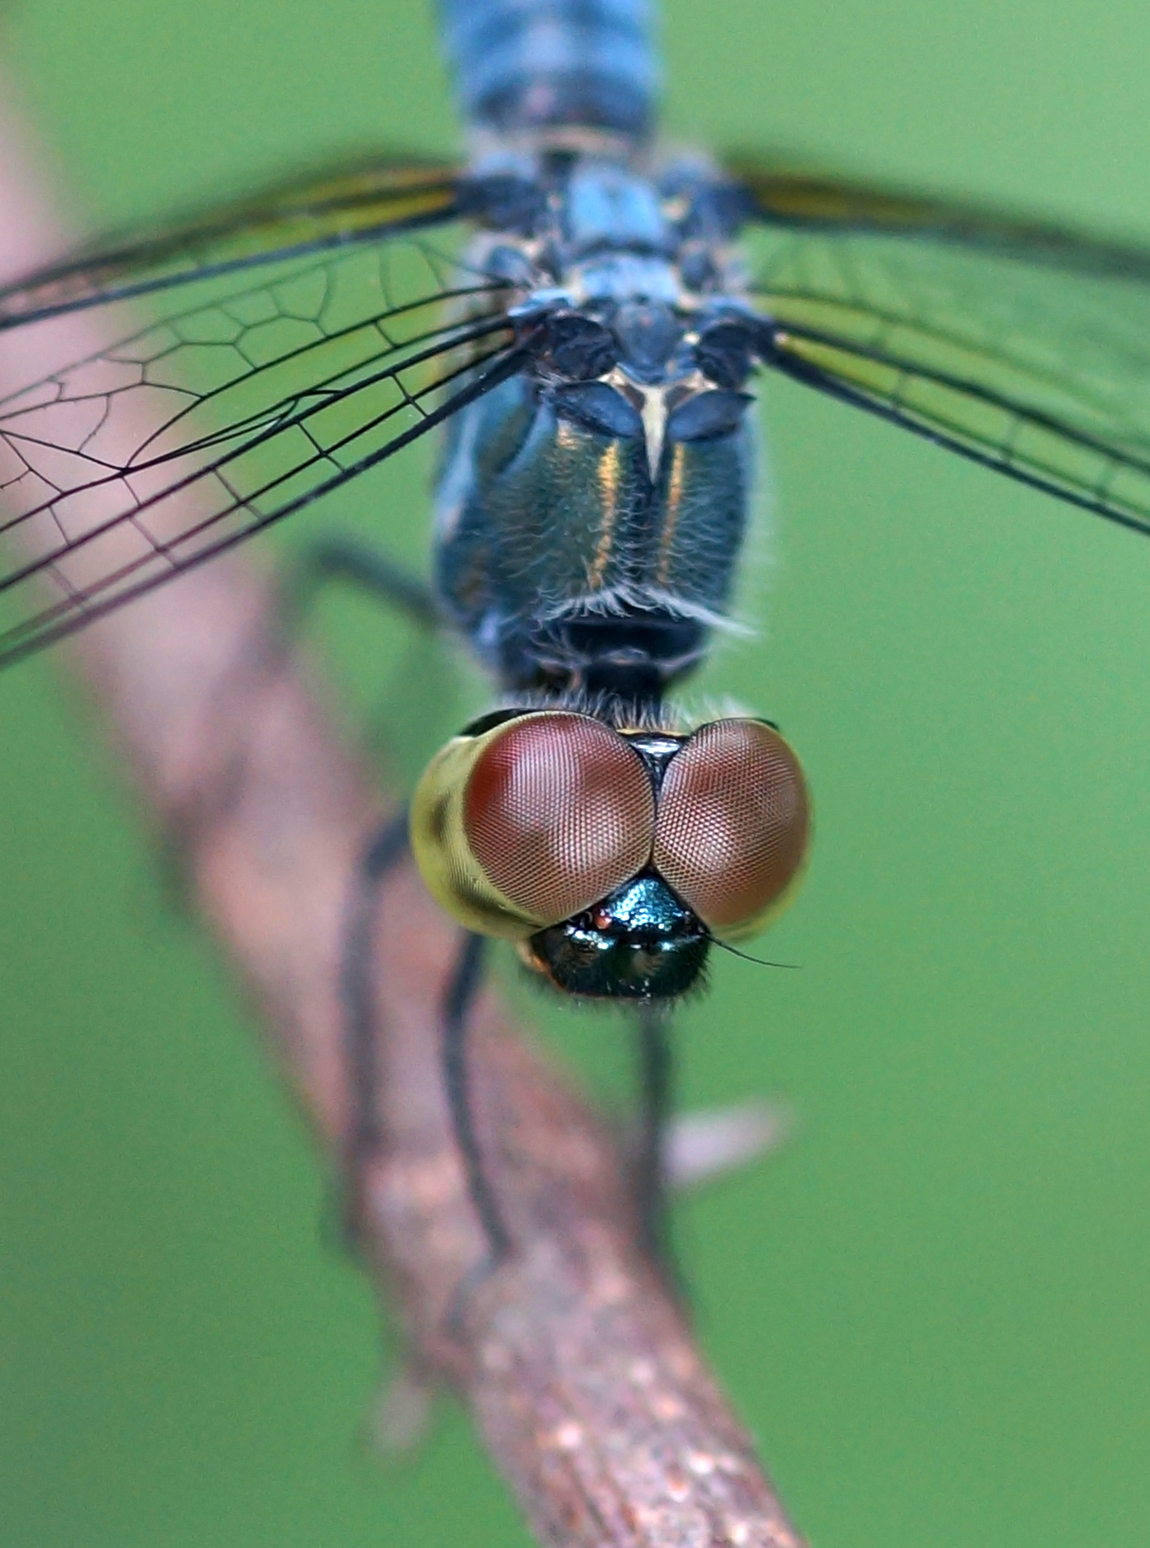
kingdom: Animalia
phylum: Arthropoda
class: Insecta
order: Odonata
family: Libellulidae
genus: Brachydiplax
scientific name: Brachydiplax farinosa
